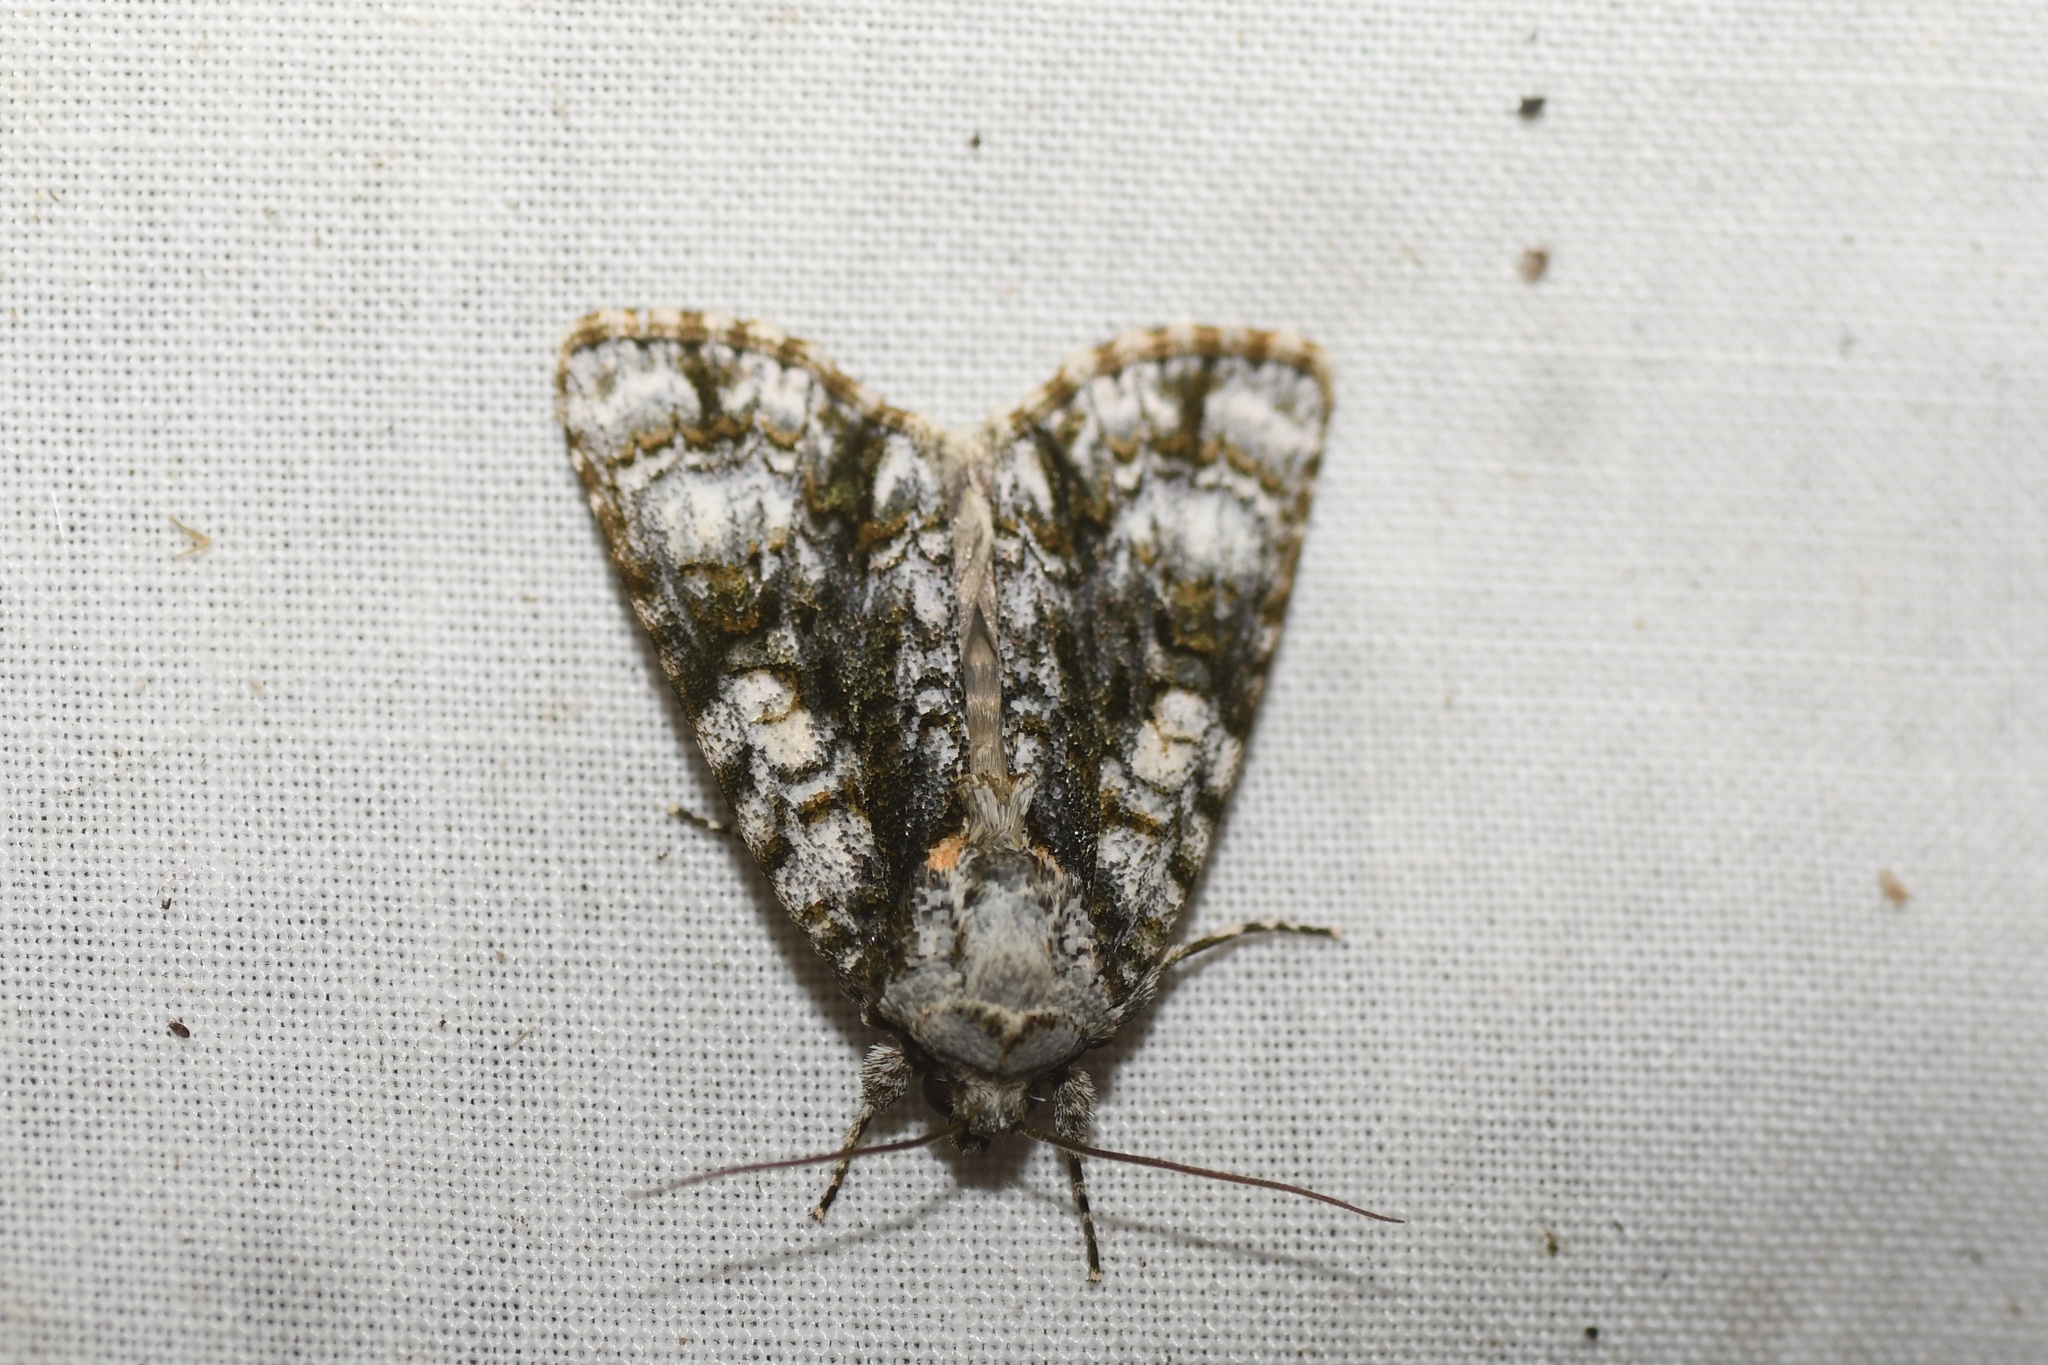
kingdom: Animalia
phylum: Arthropoda
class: Insecta
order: Lepidoptera
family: Noctuidae
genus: Acronicta
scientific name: Acronicta superans
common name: Splendid dagger
